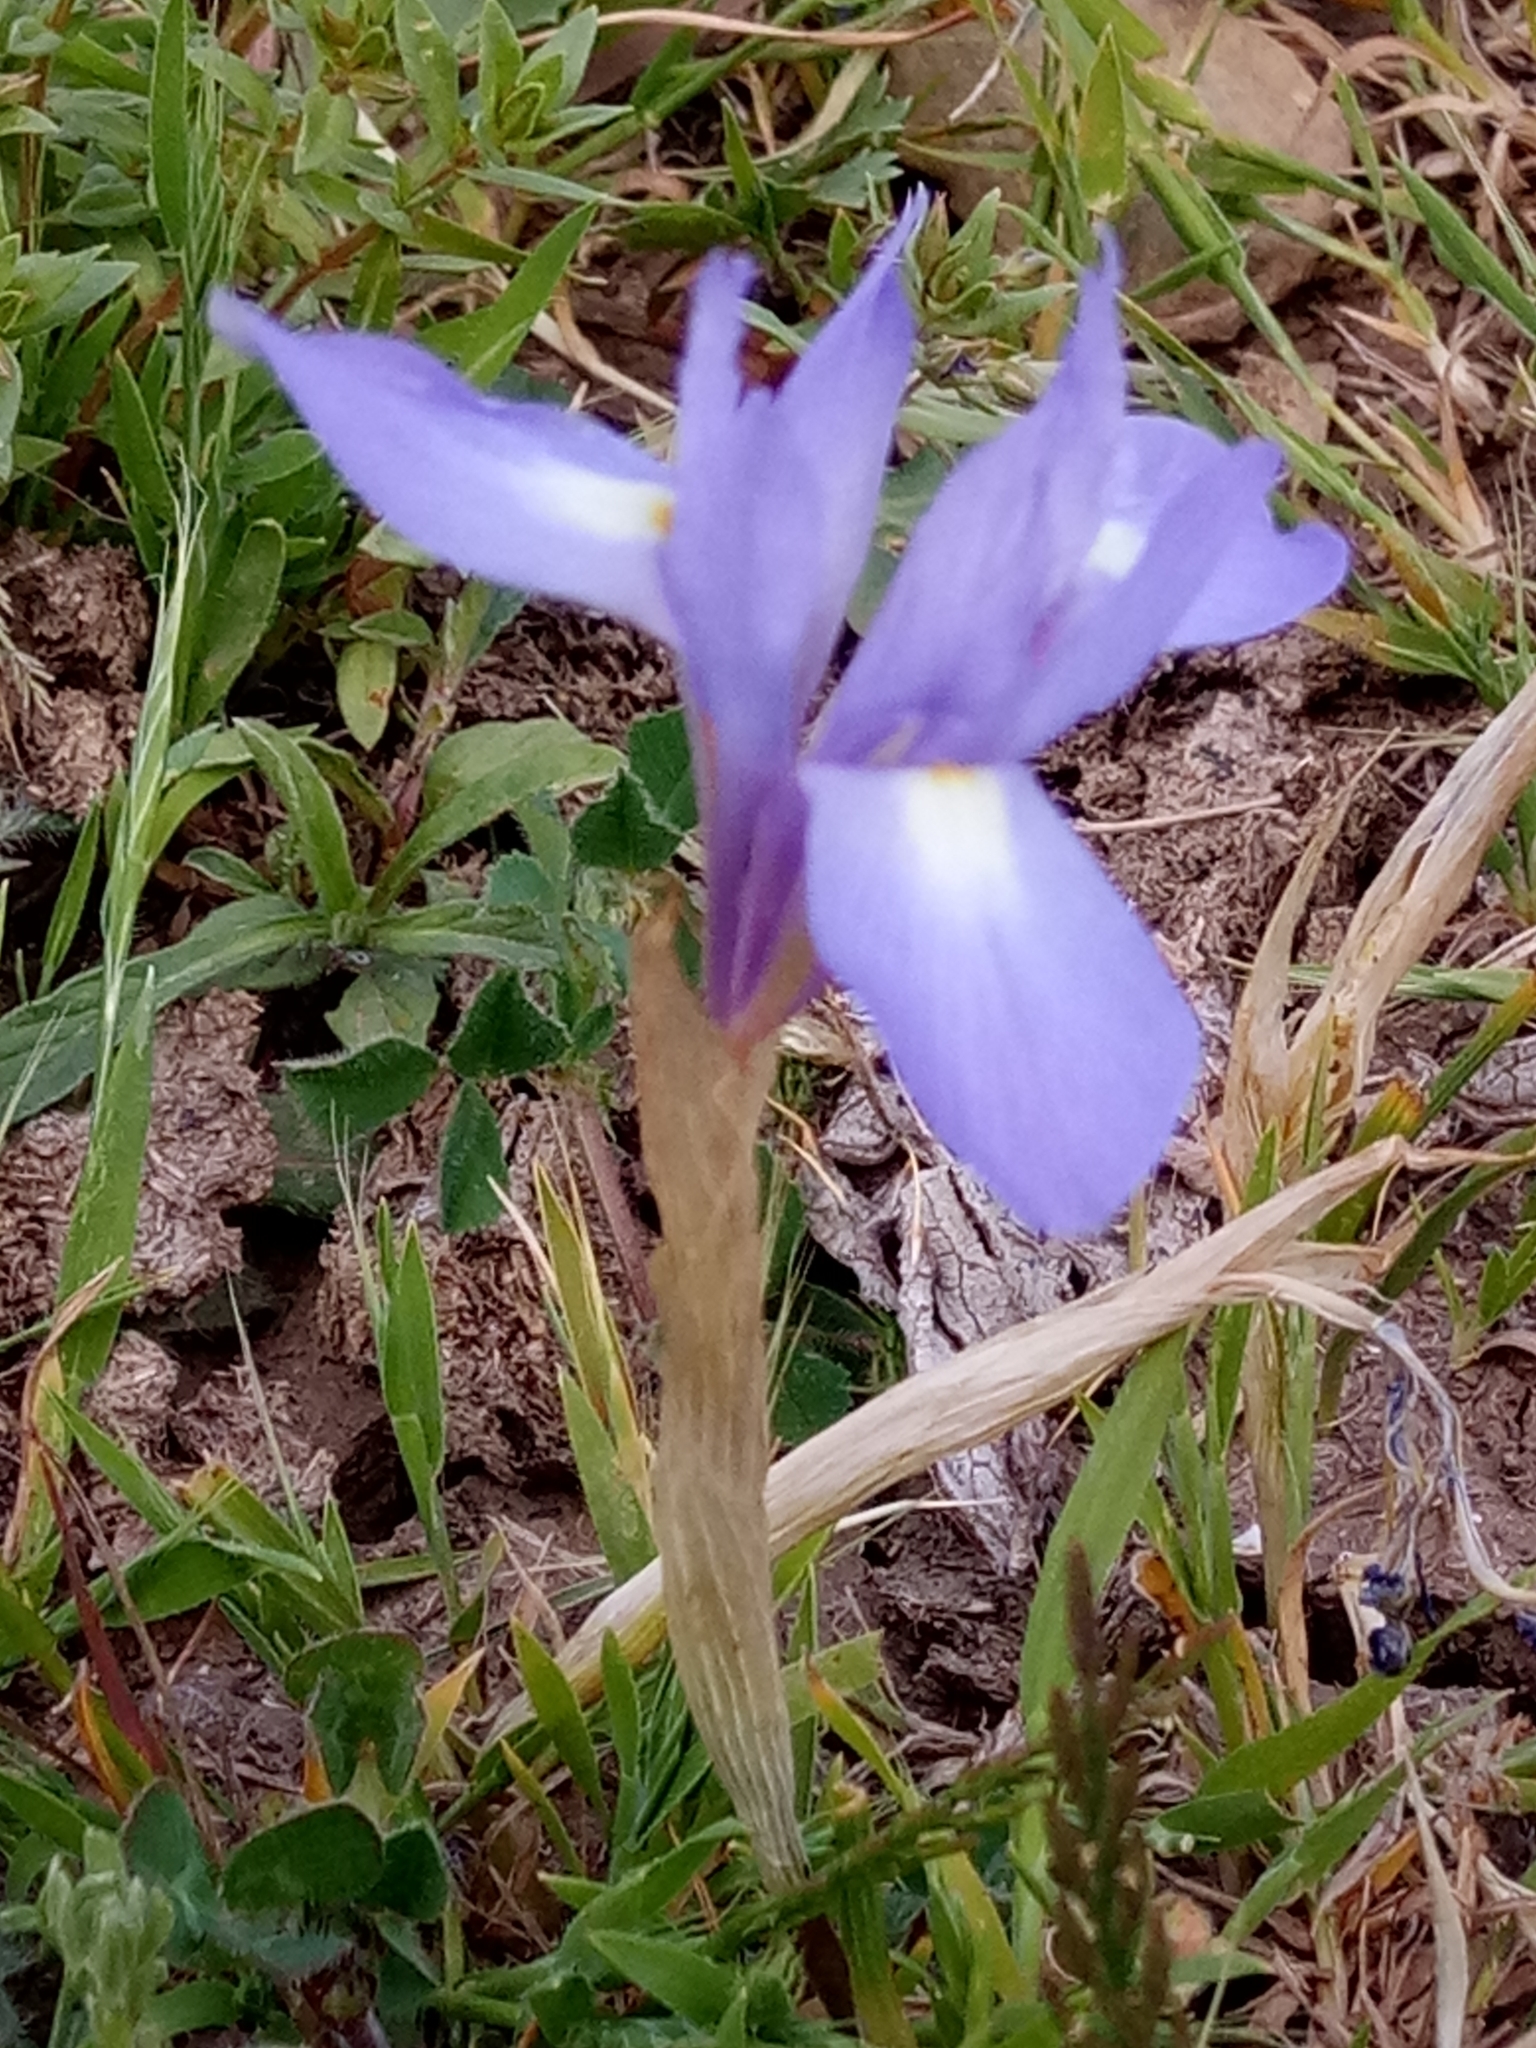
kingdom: Plantae
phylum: Tracheophyta
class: Liliopsida
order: Asparagales
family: Iridaceae
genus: Moraea
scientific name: Moraea sisyrinchium
